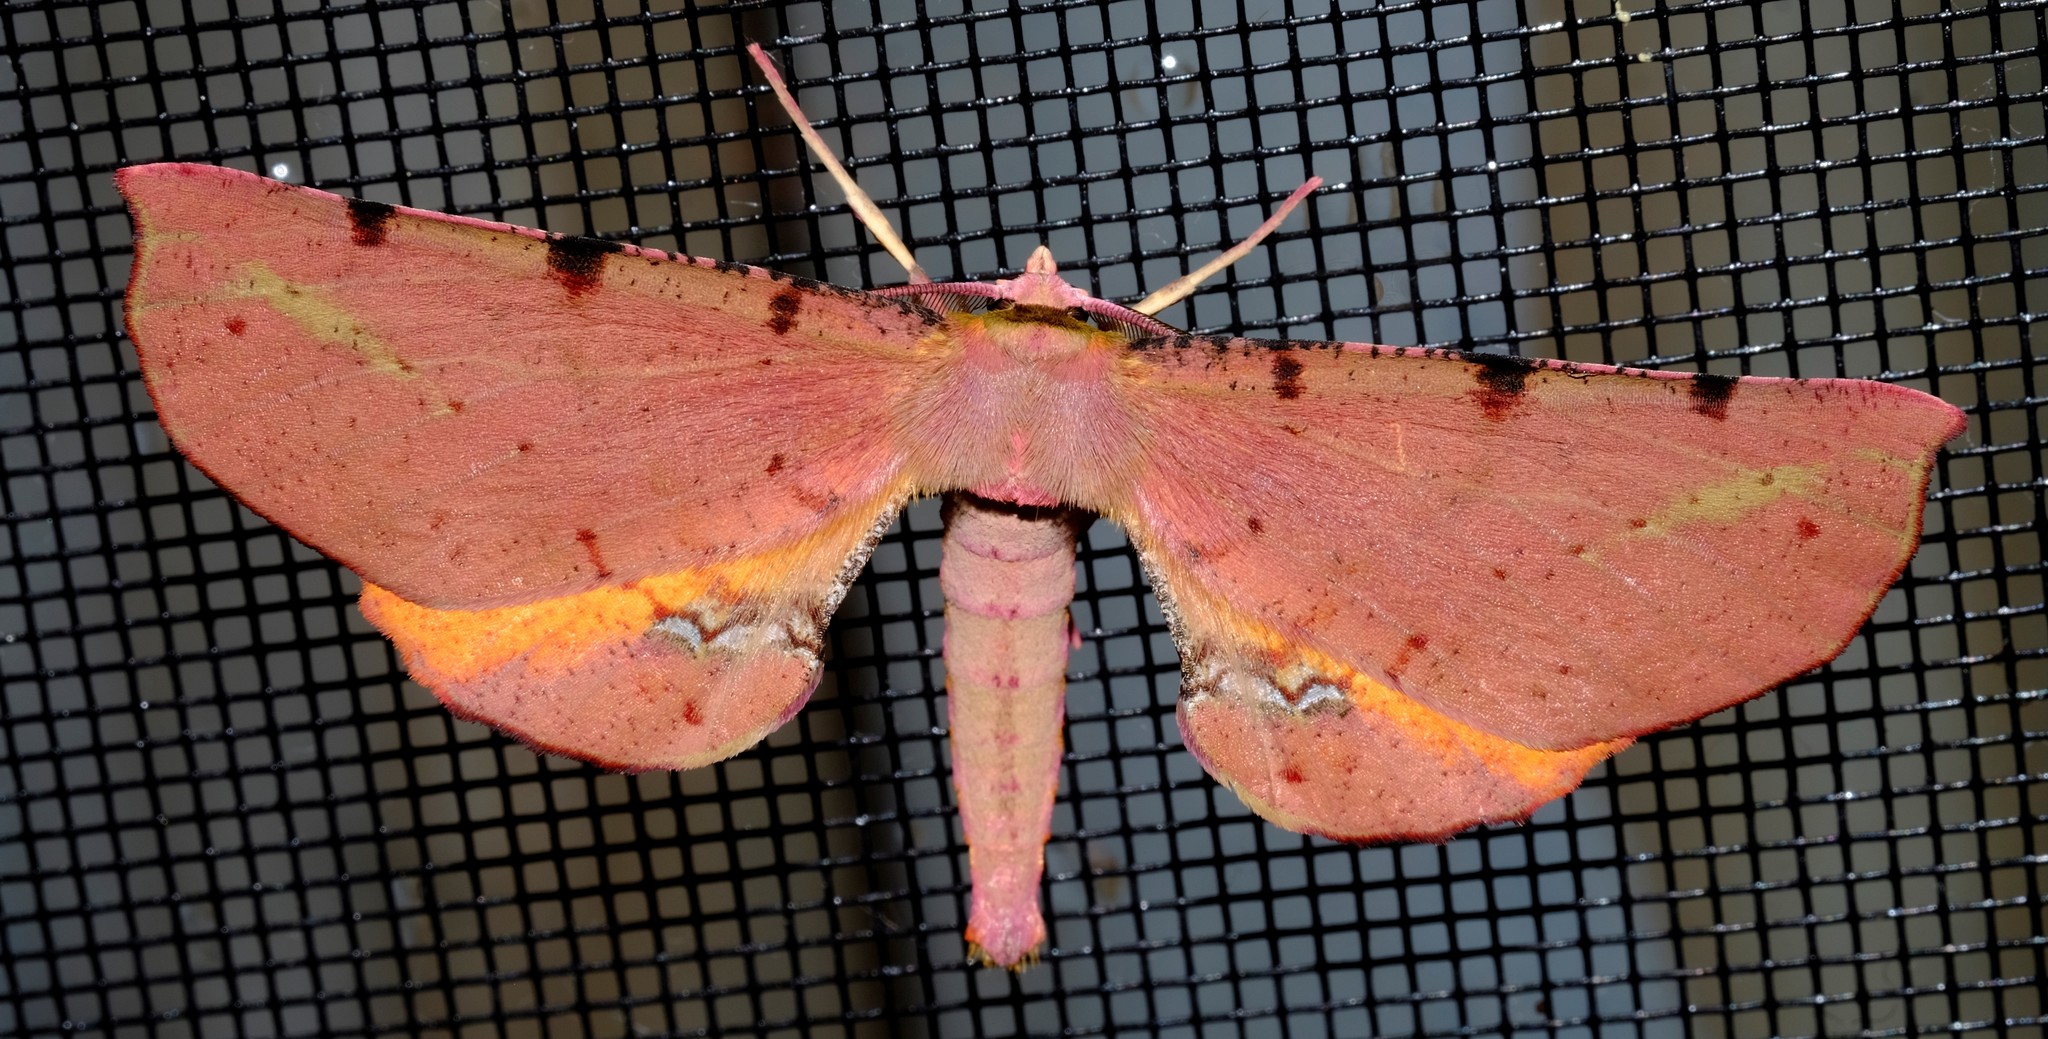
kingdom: Animalia
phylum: Arthropoda
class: Insecta
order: Lepidoptera
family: Geometridae
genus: Parepisparis
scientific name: Parepisparis lutosaria
